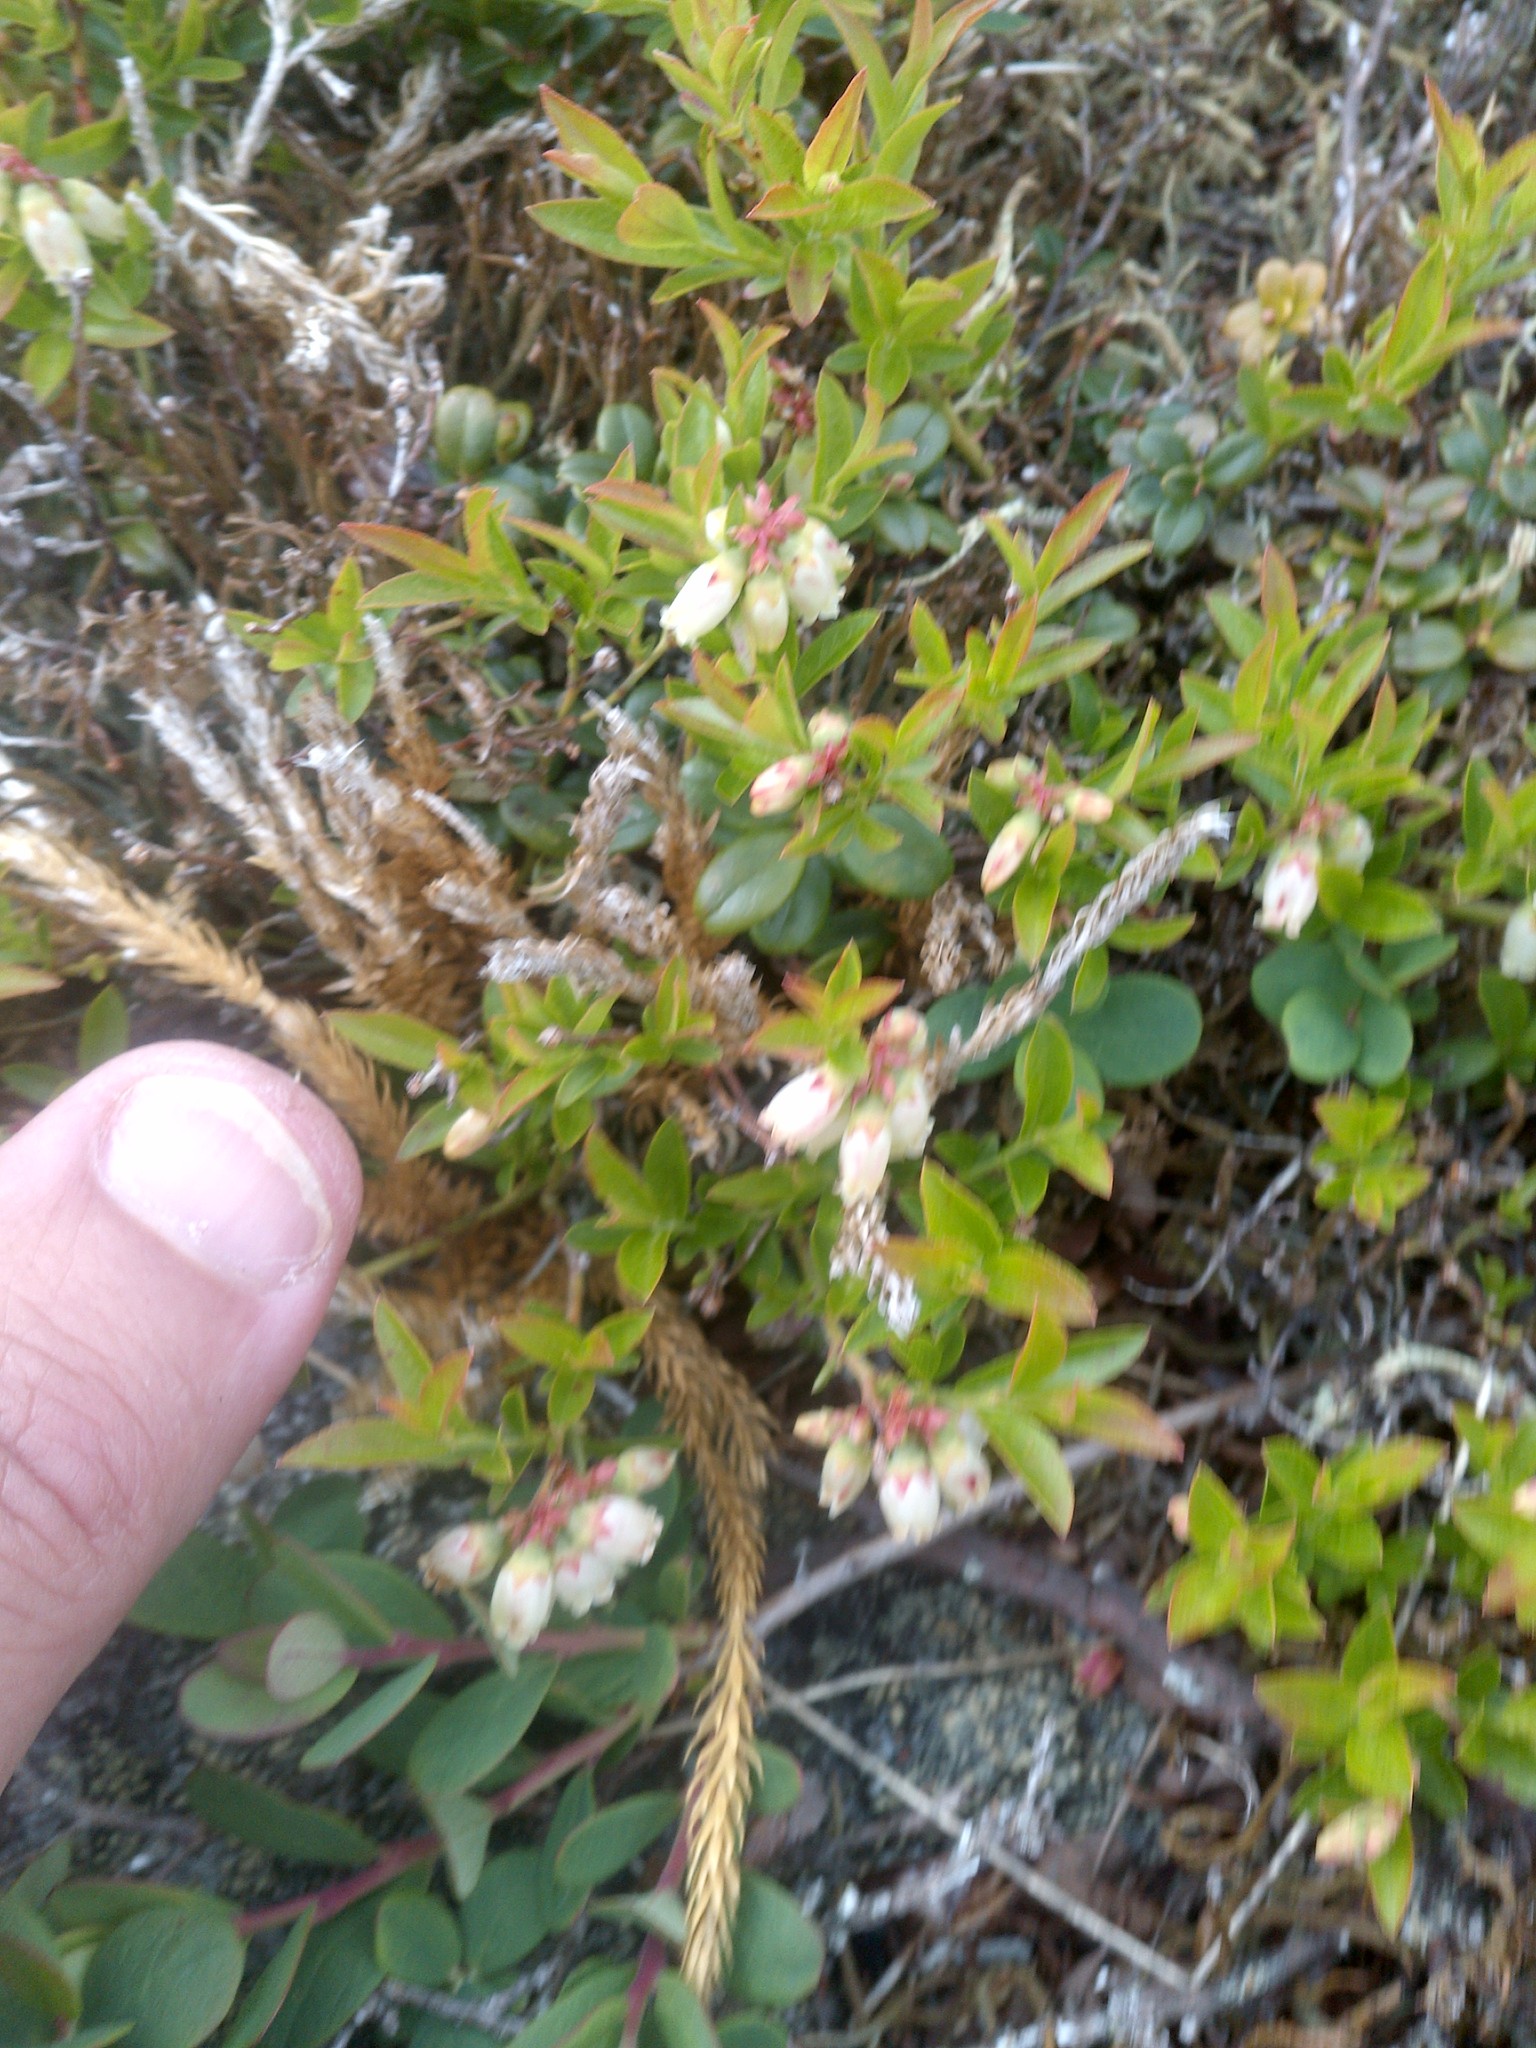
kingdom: Plantae
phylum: Tracheophyta
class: Magnoliopsida
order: Ericales
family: Ericaceae
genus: Vaccinium
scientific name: Vaccinium boreale
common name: Northern blueberry
